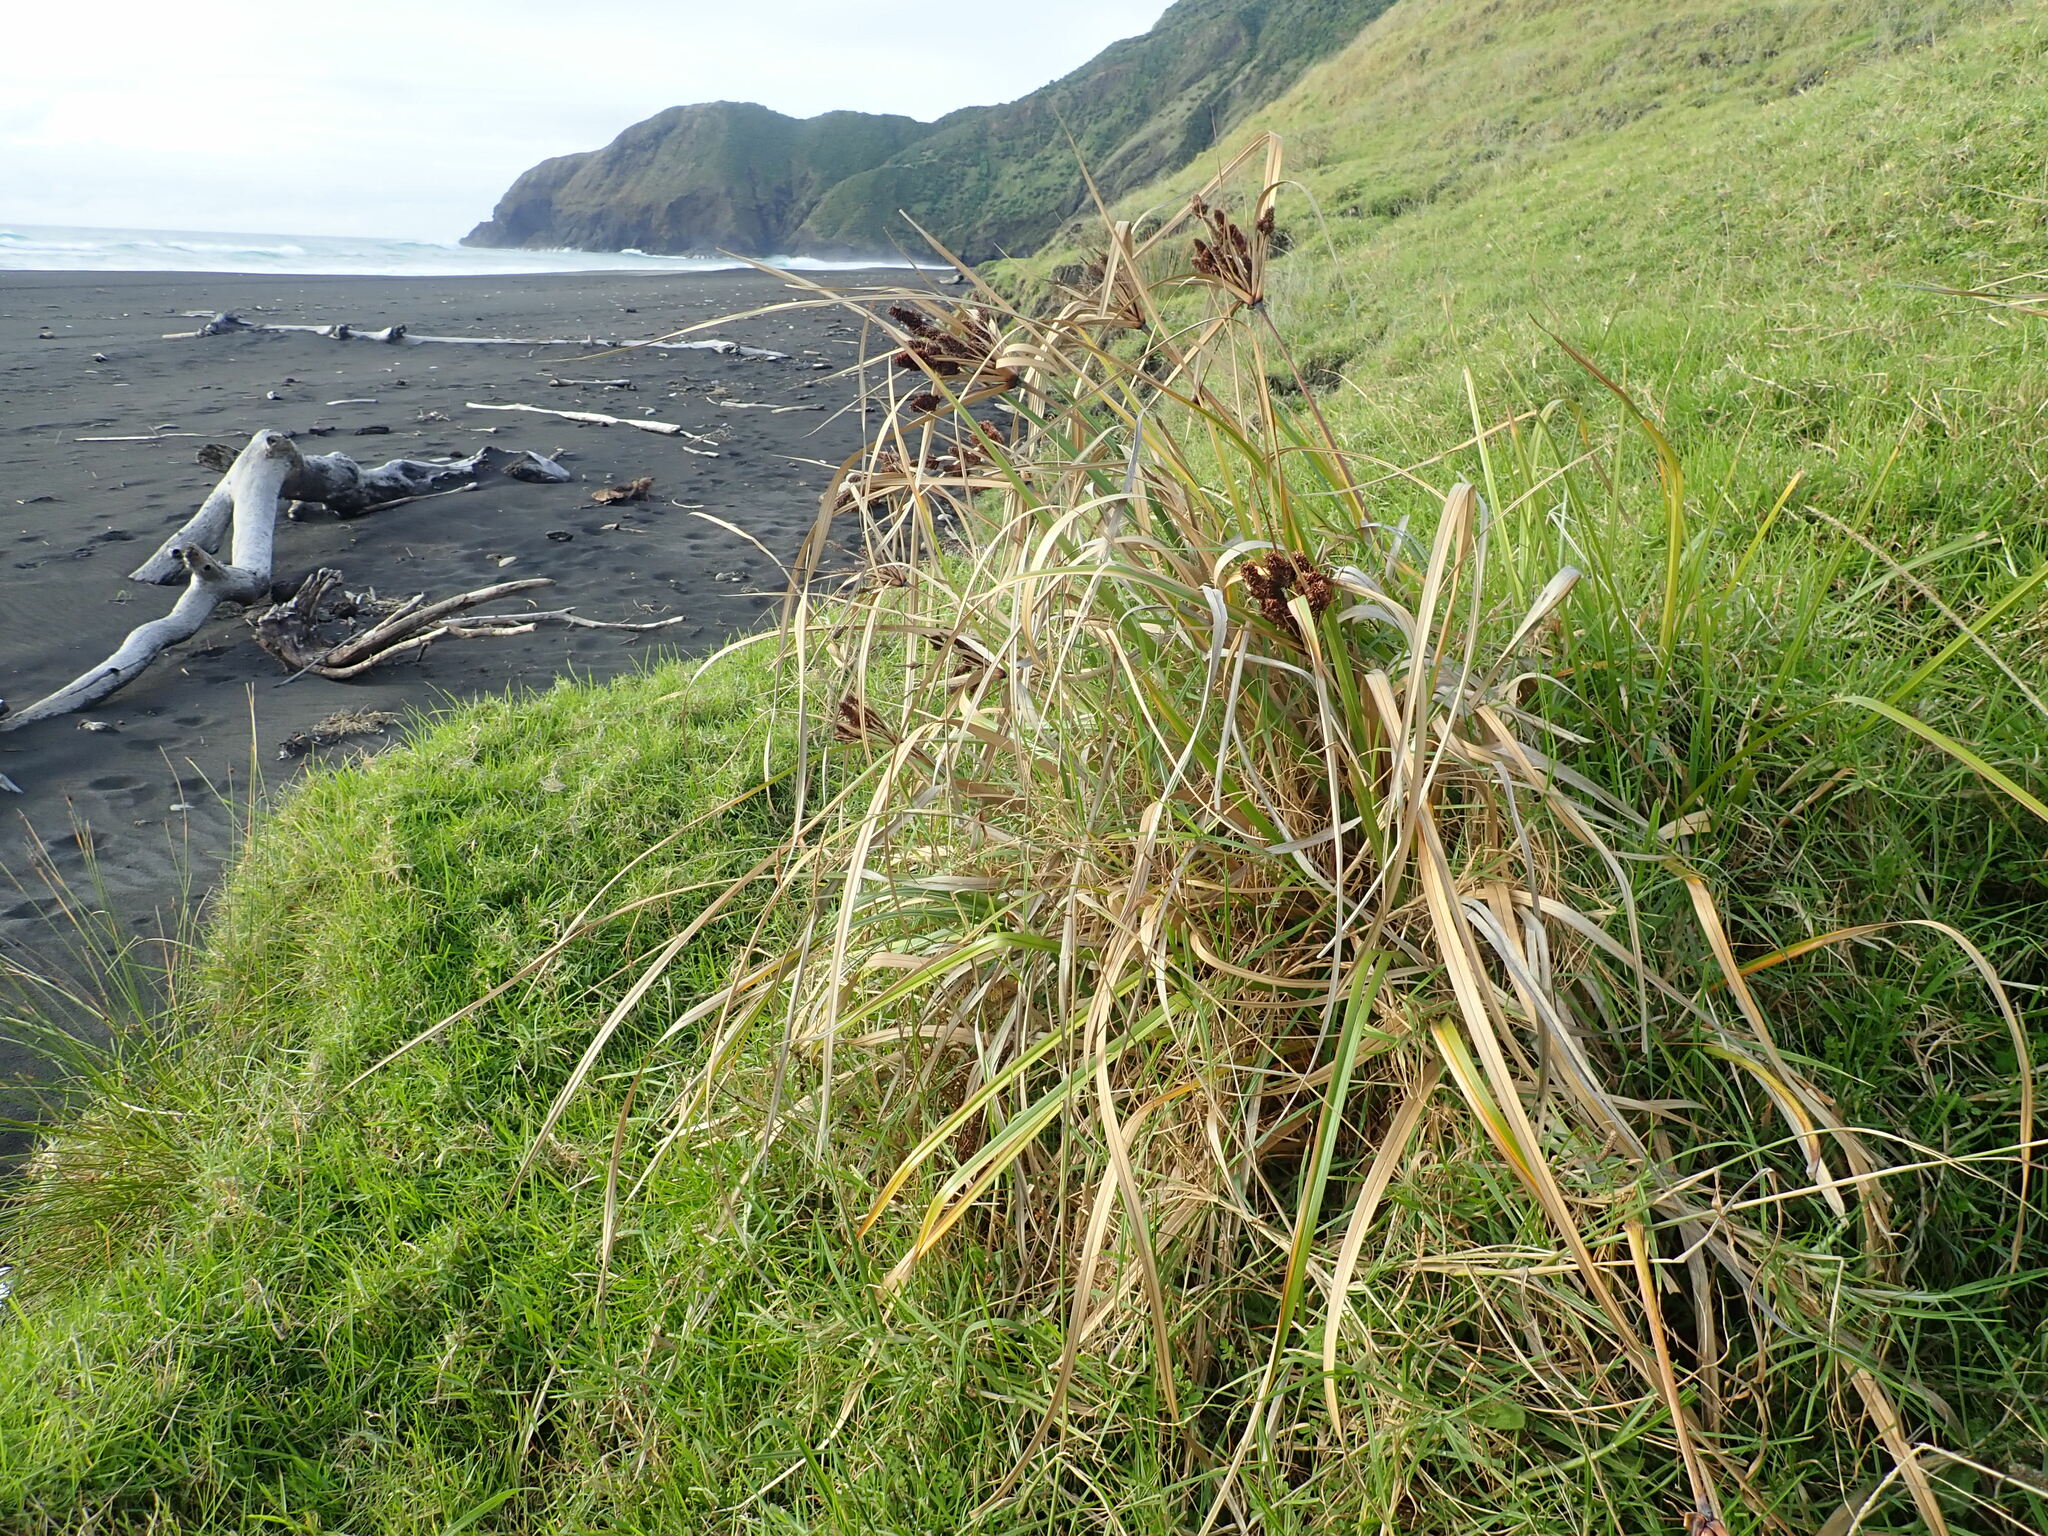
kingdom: Plantae
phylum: Tracheophyta
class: Liliopsida
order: Poales
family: Cyperaceae
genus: Cyperus
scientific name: Cyperus ustulatus
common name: Giant umbrella-sedge
